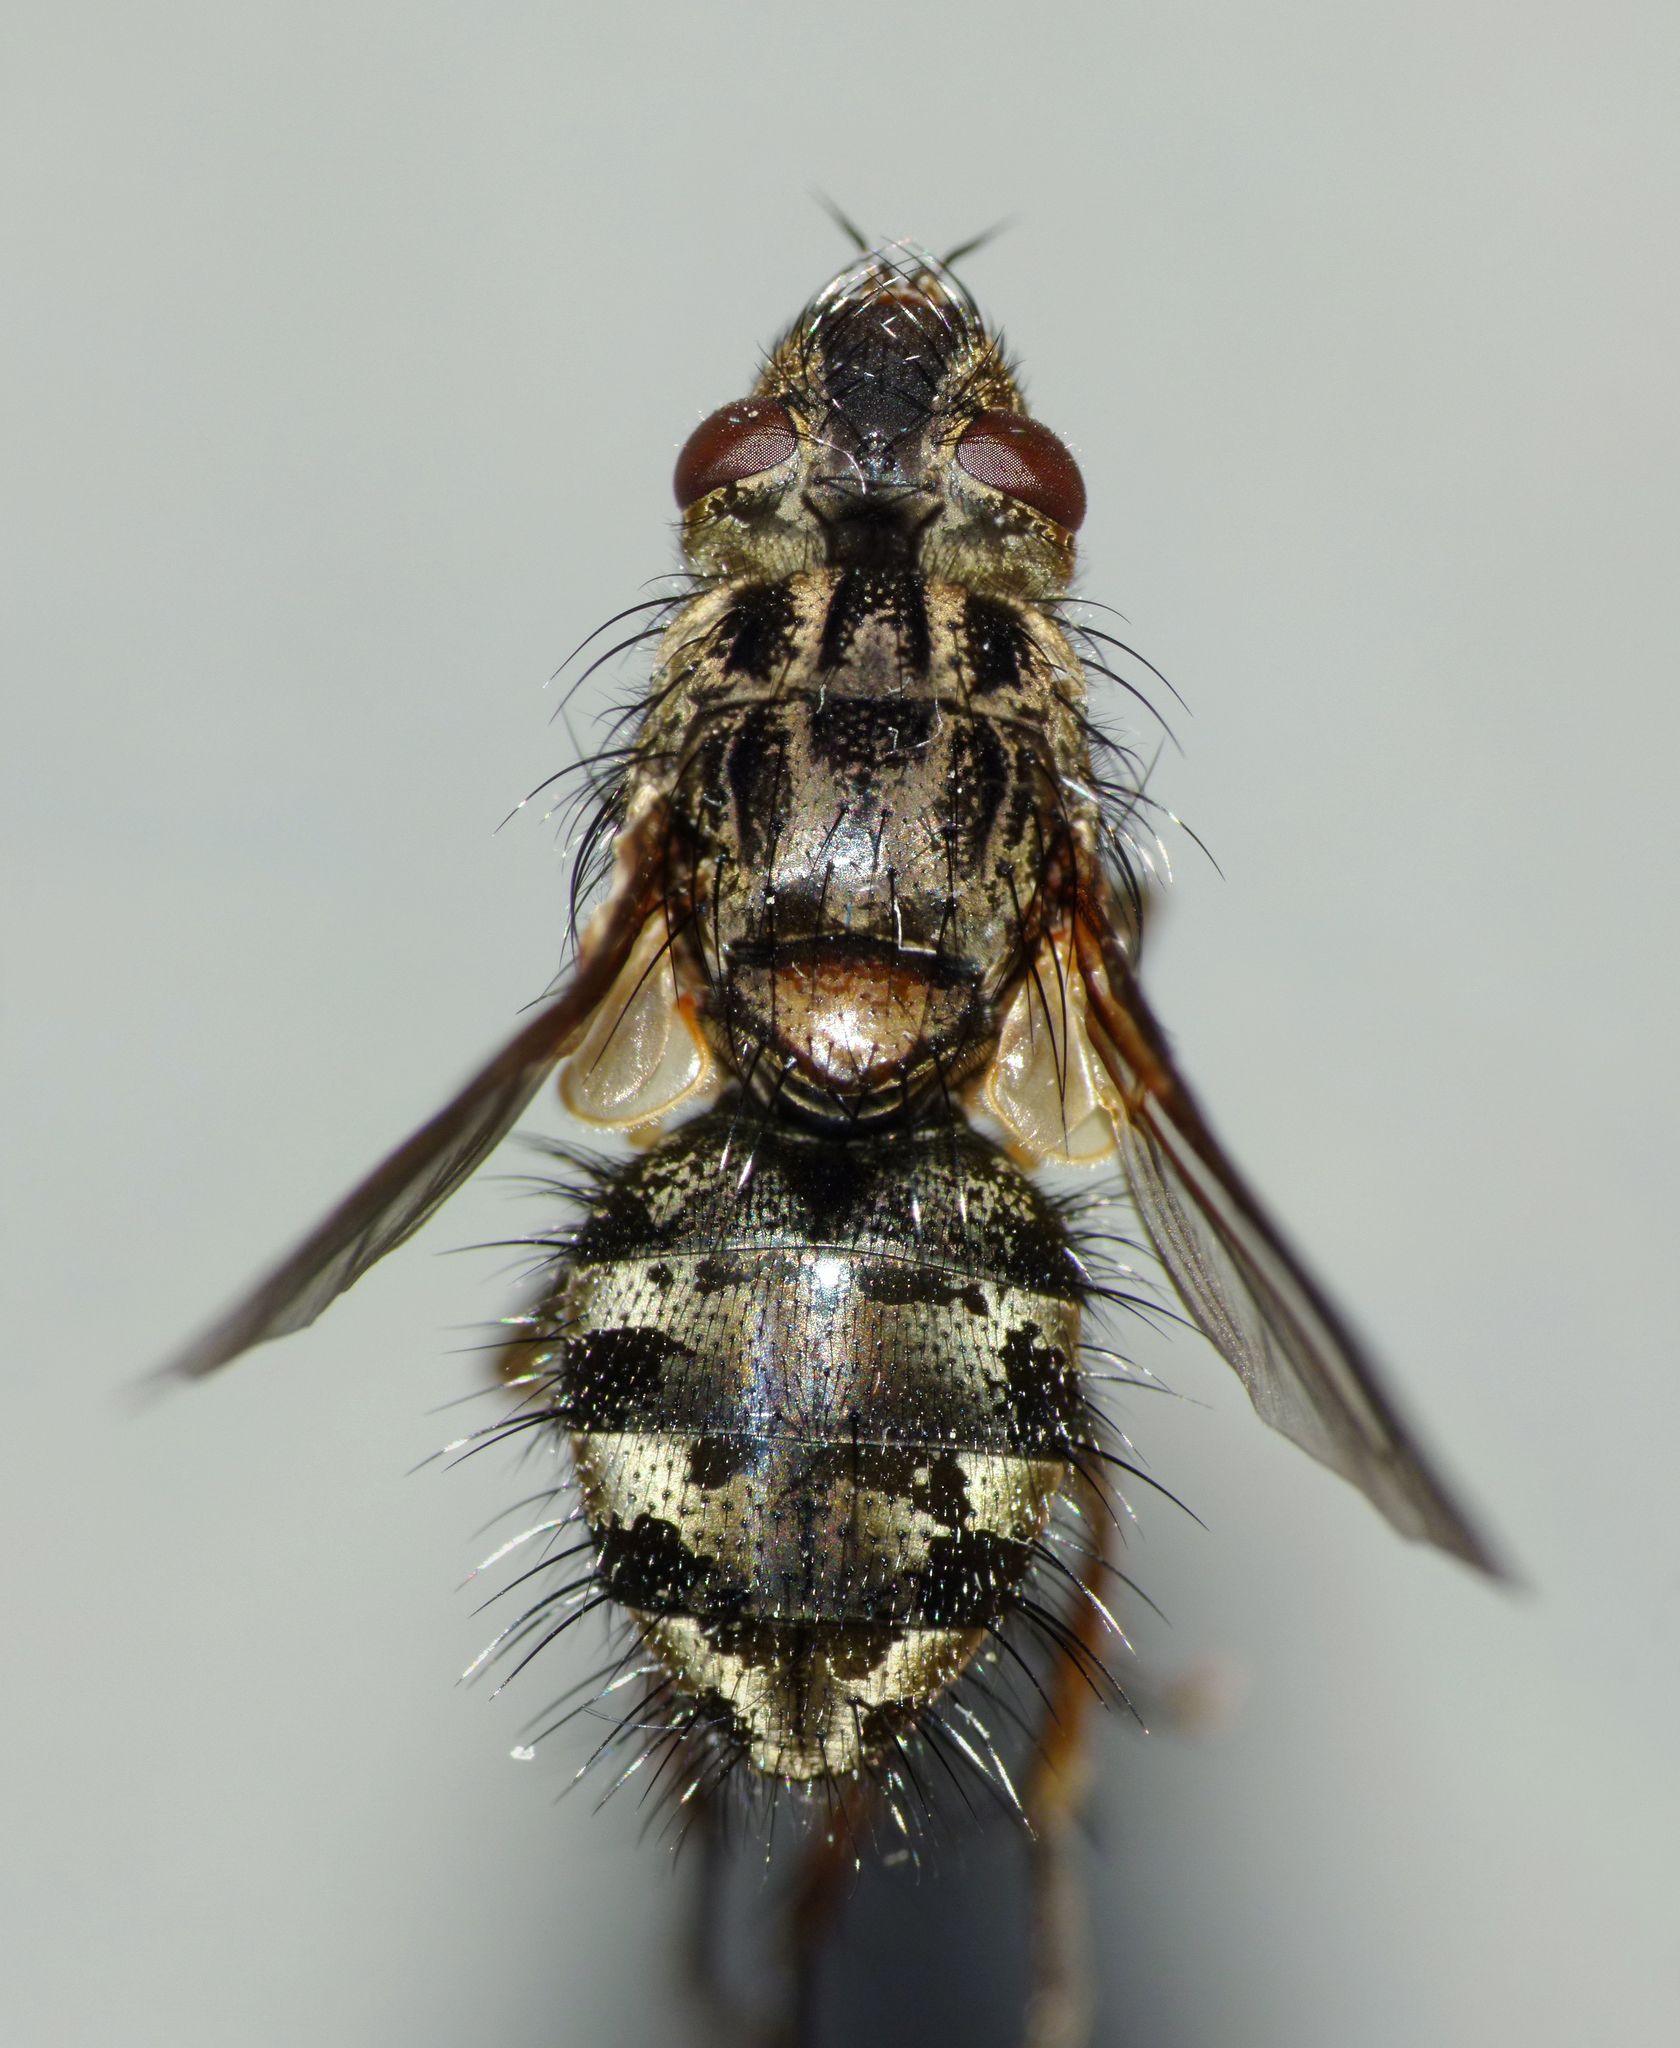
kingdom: Animalia
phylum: Arthropoda
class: Insecta
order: Diptera
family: Tachinidae
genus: Peremptor
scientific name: Peremptor modicus
